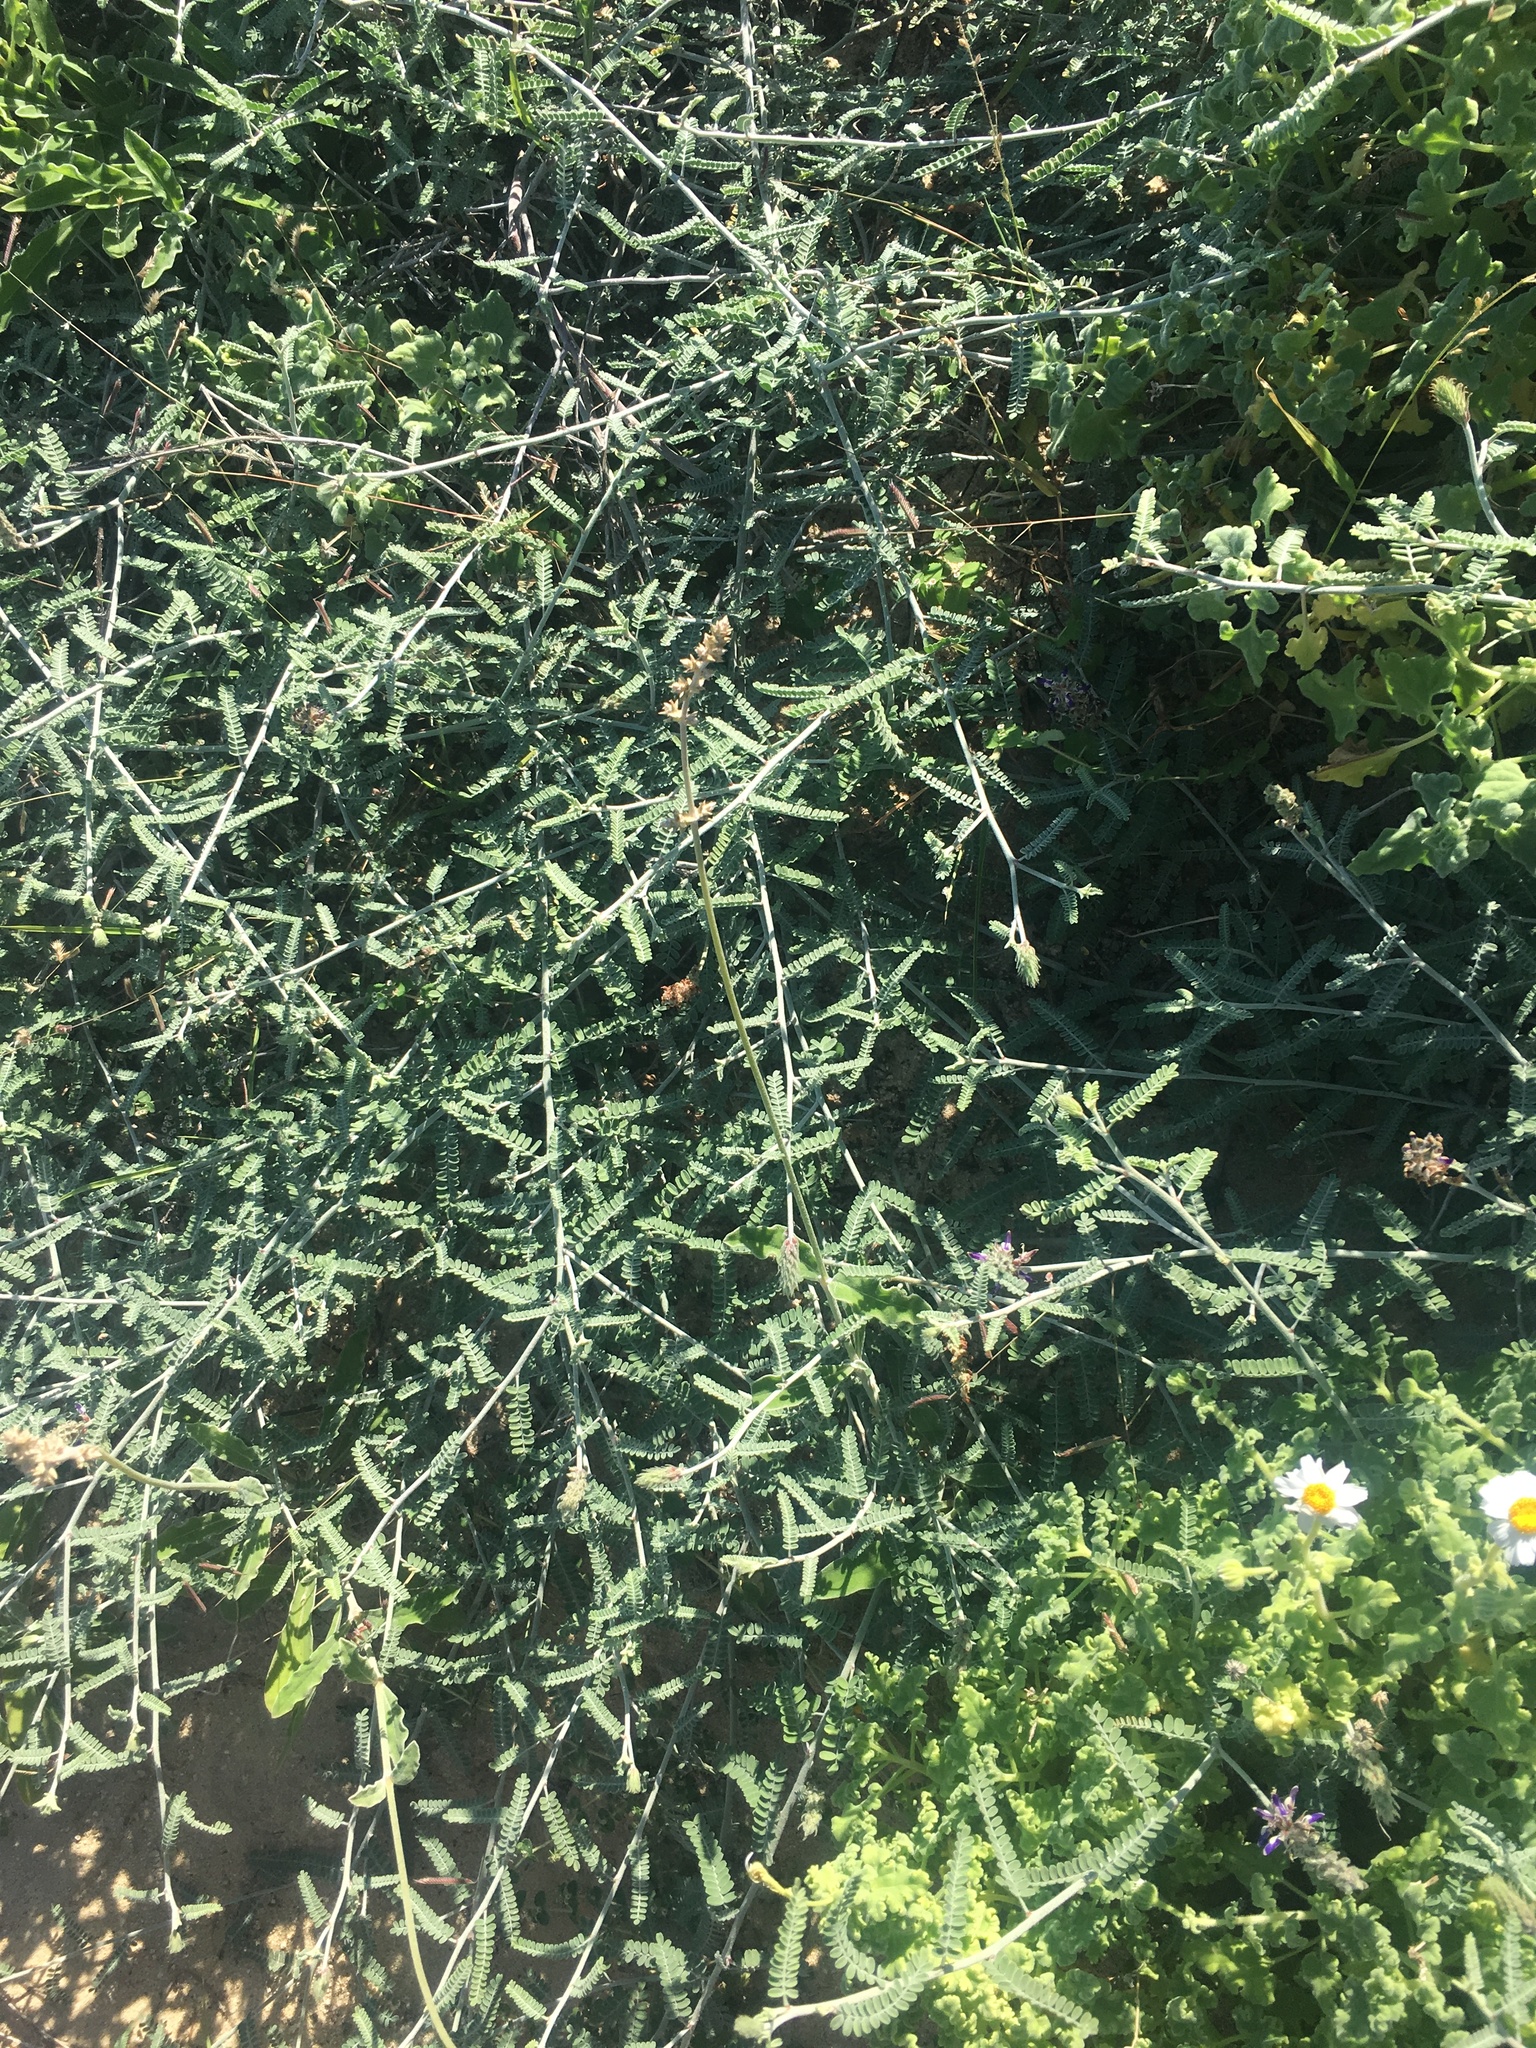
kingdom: Plantae
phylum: Tracheophyta
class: Magnoliopsida
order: Fabales
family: Fabaceae
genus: Marina
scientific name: Marina maritima
